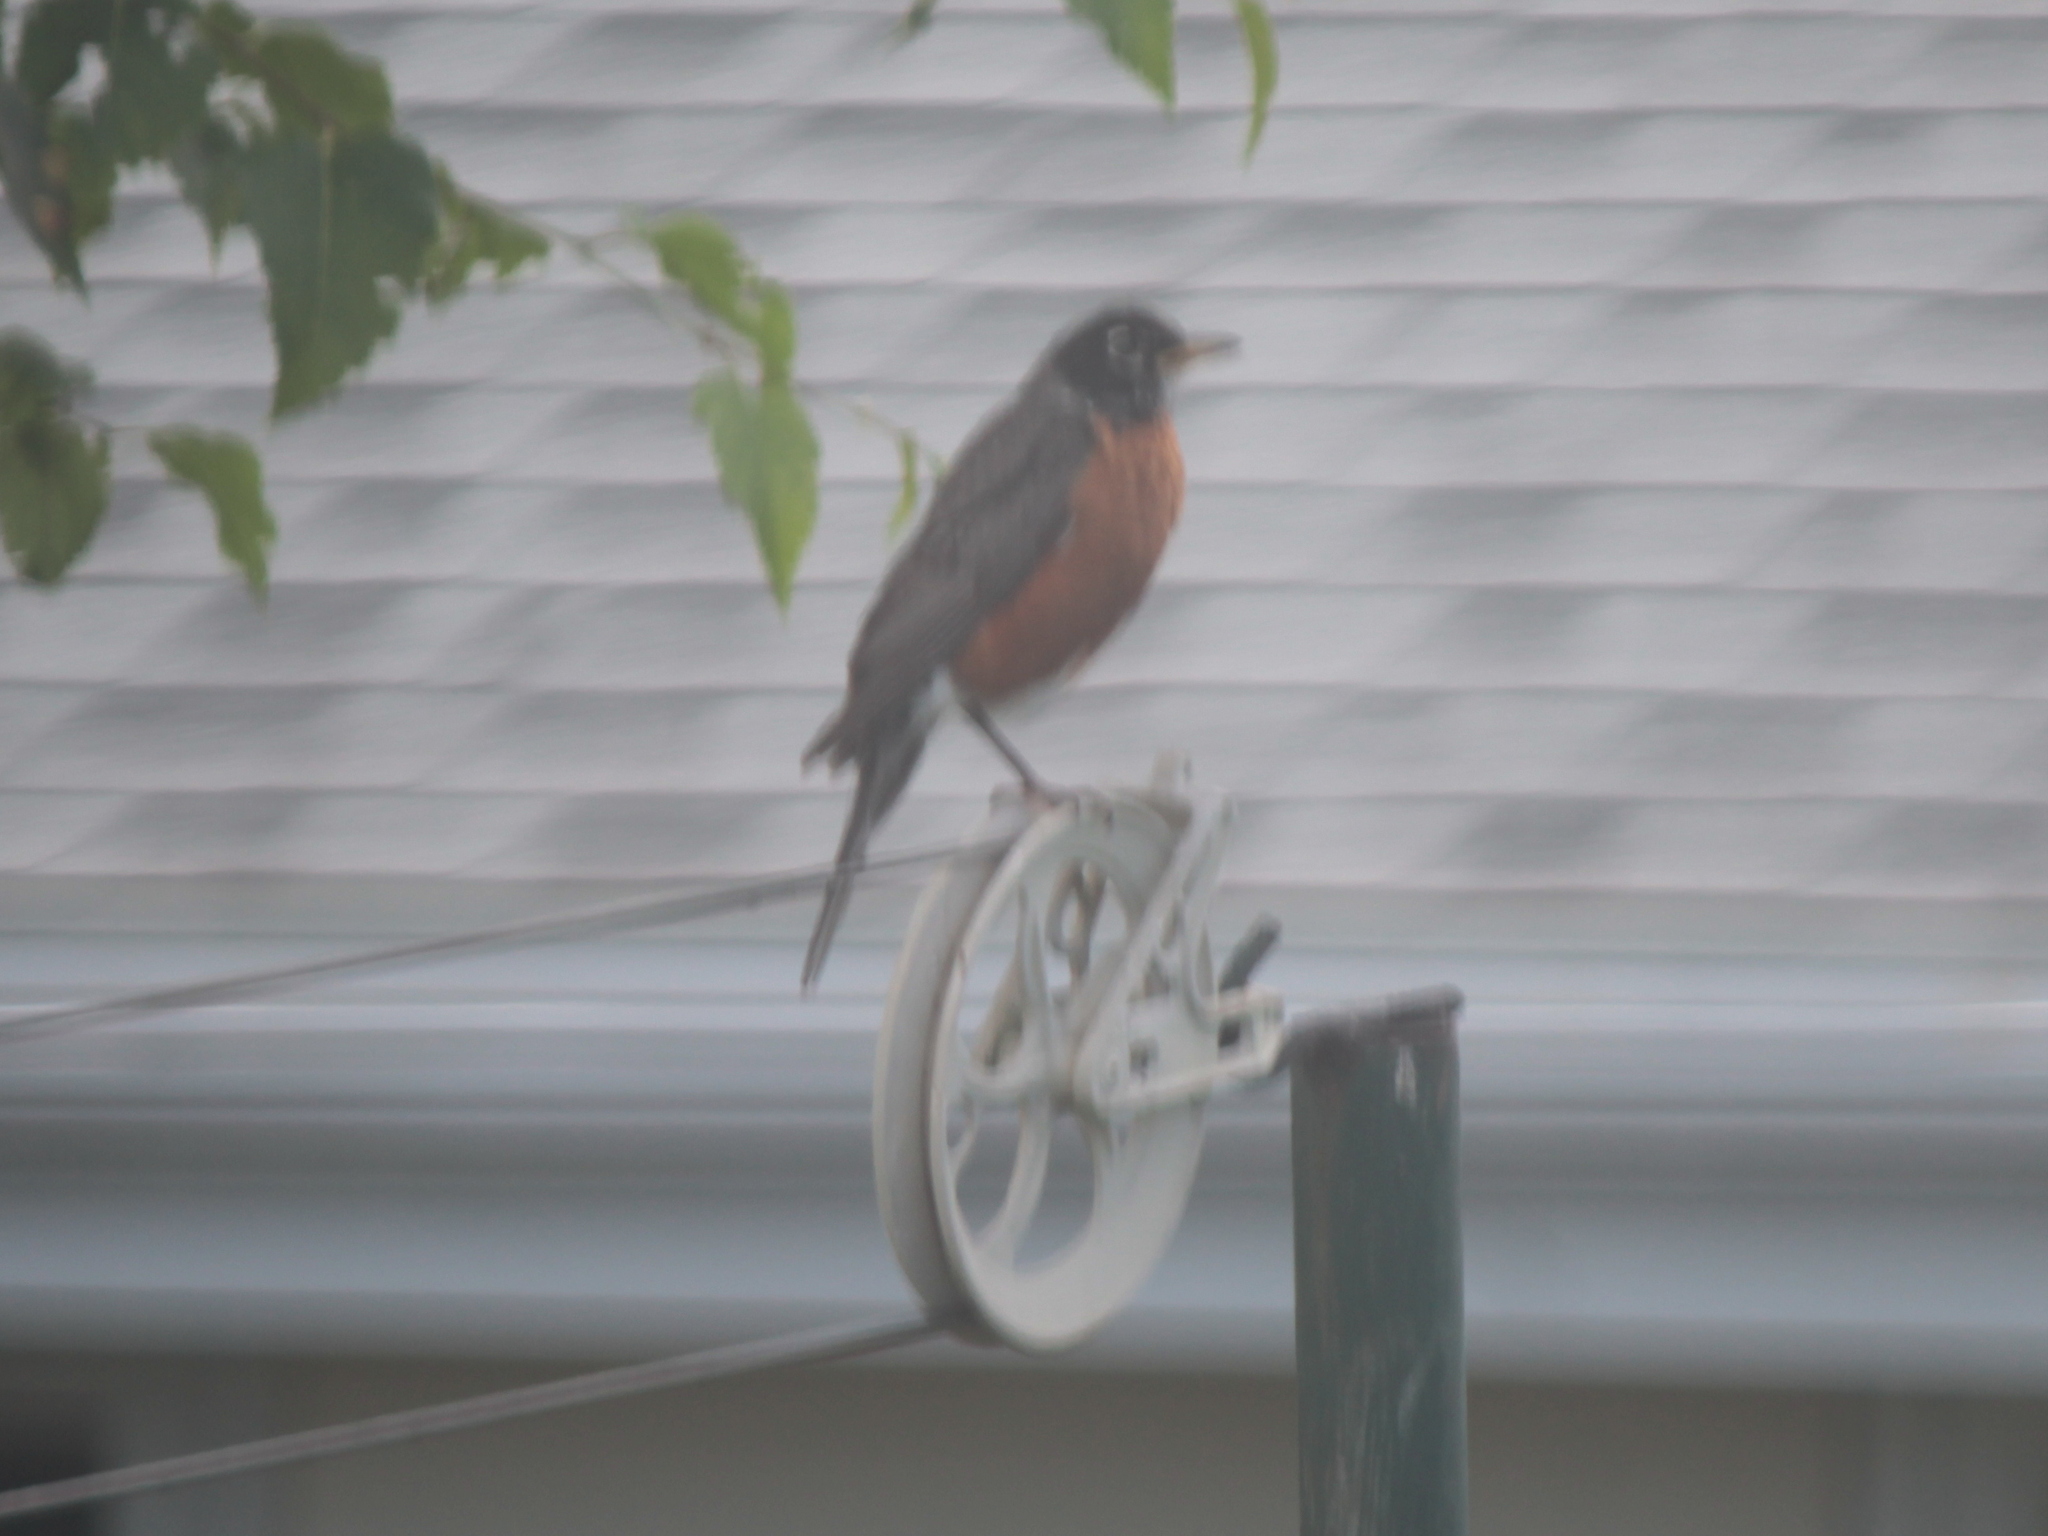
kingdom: Animalia
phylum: Chordata
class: Aves
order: Passeriformes
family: Turdidae
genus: Turdus
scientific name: Turdus migratorius
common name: American robin
